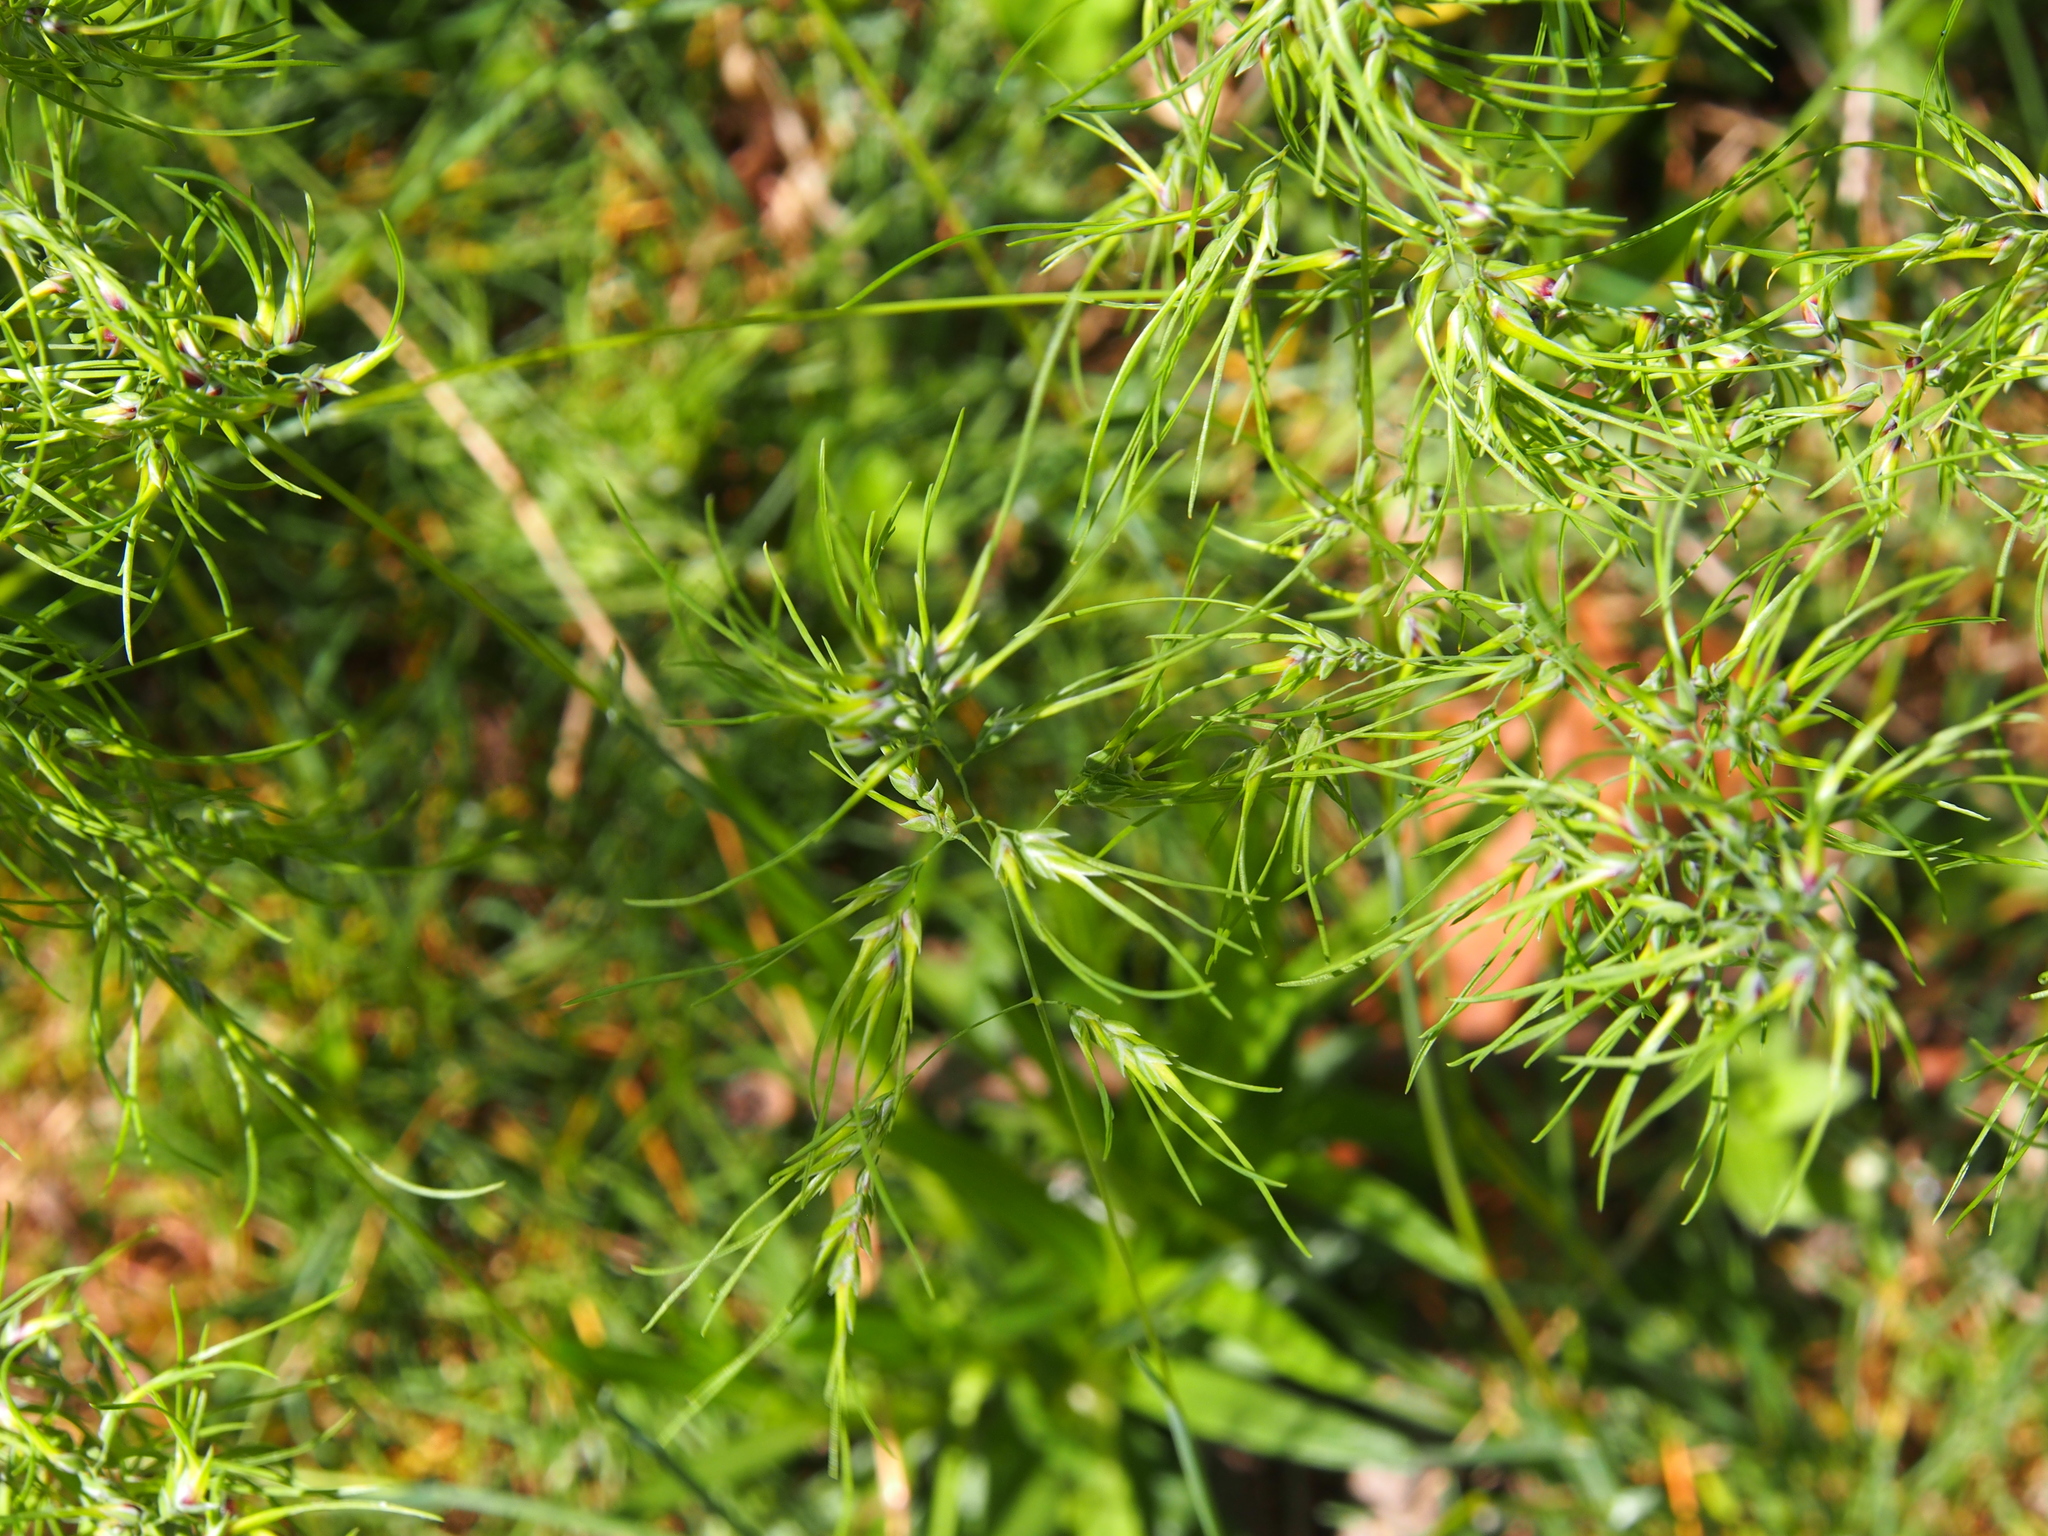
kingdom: Plantae
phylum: Tracheophyta
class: Liliopsida
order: Poales
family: Poaceae
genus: Poa
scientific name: Poa bulbosa
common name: Bulbous bluegrass
